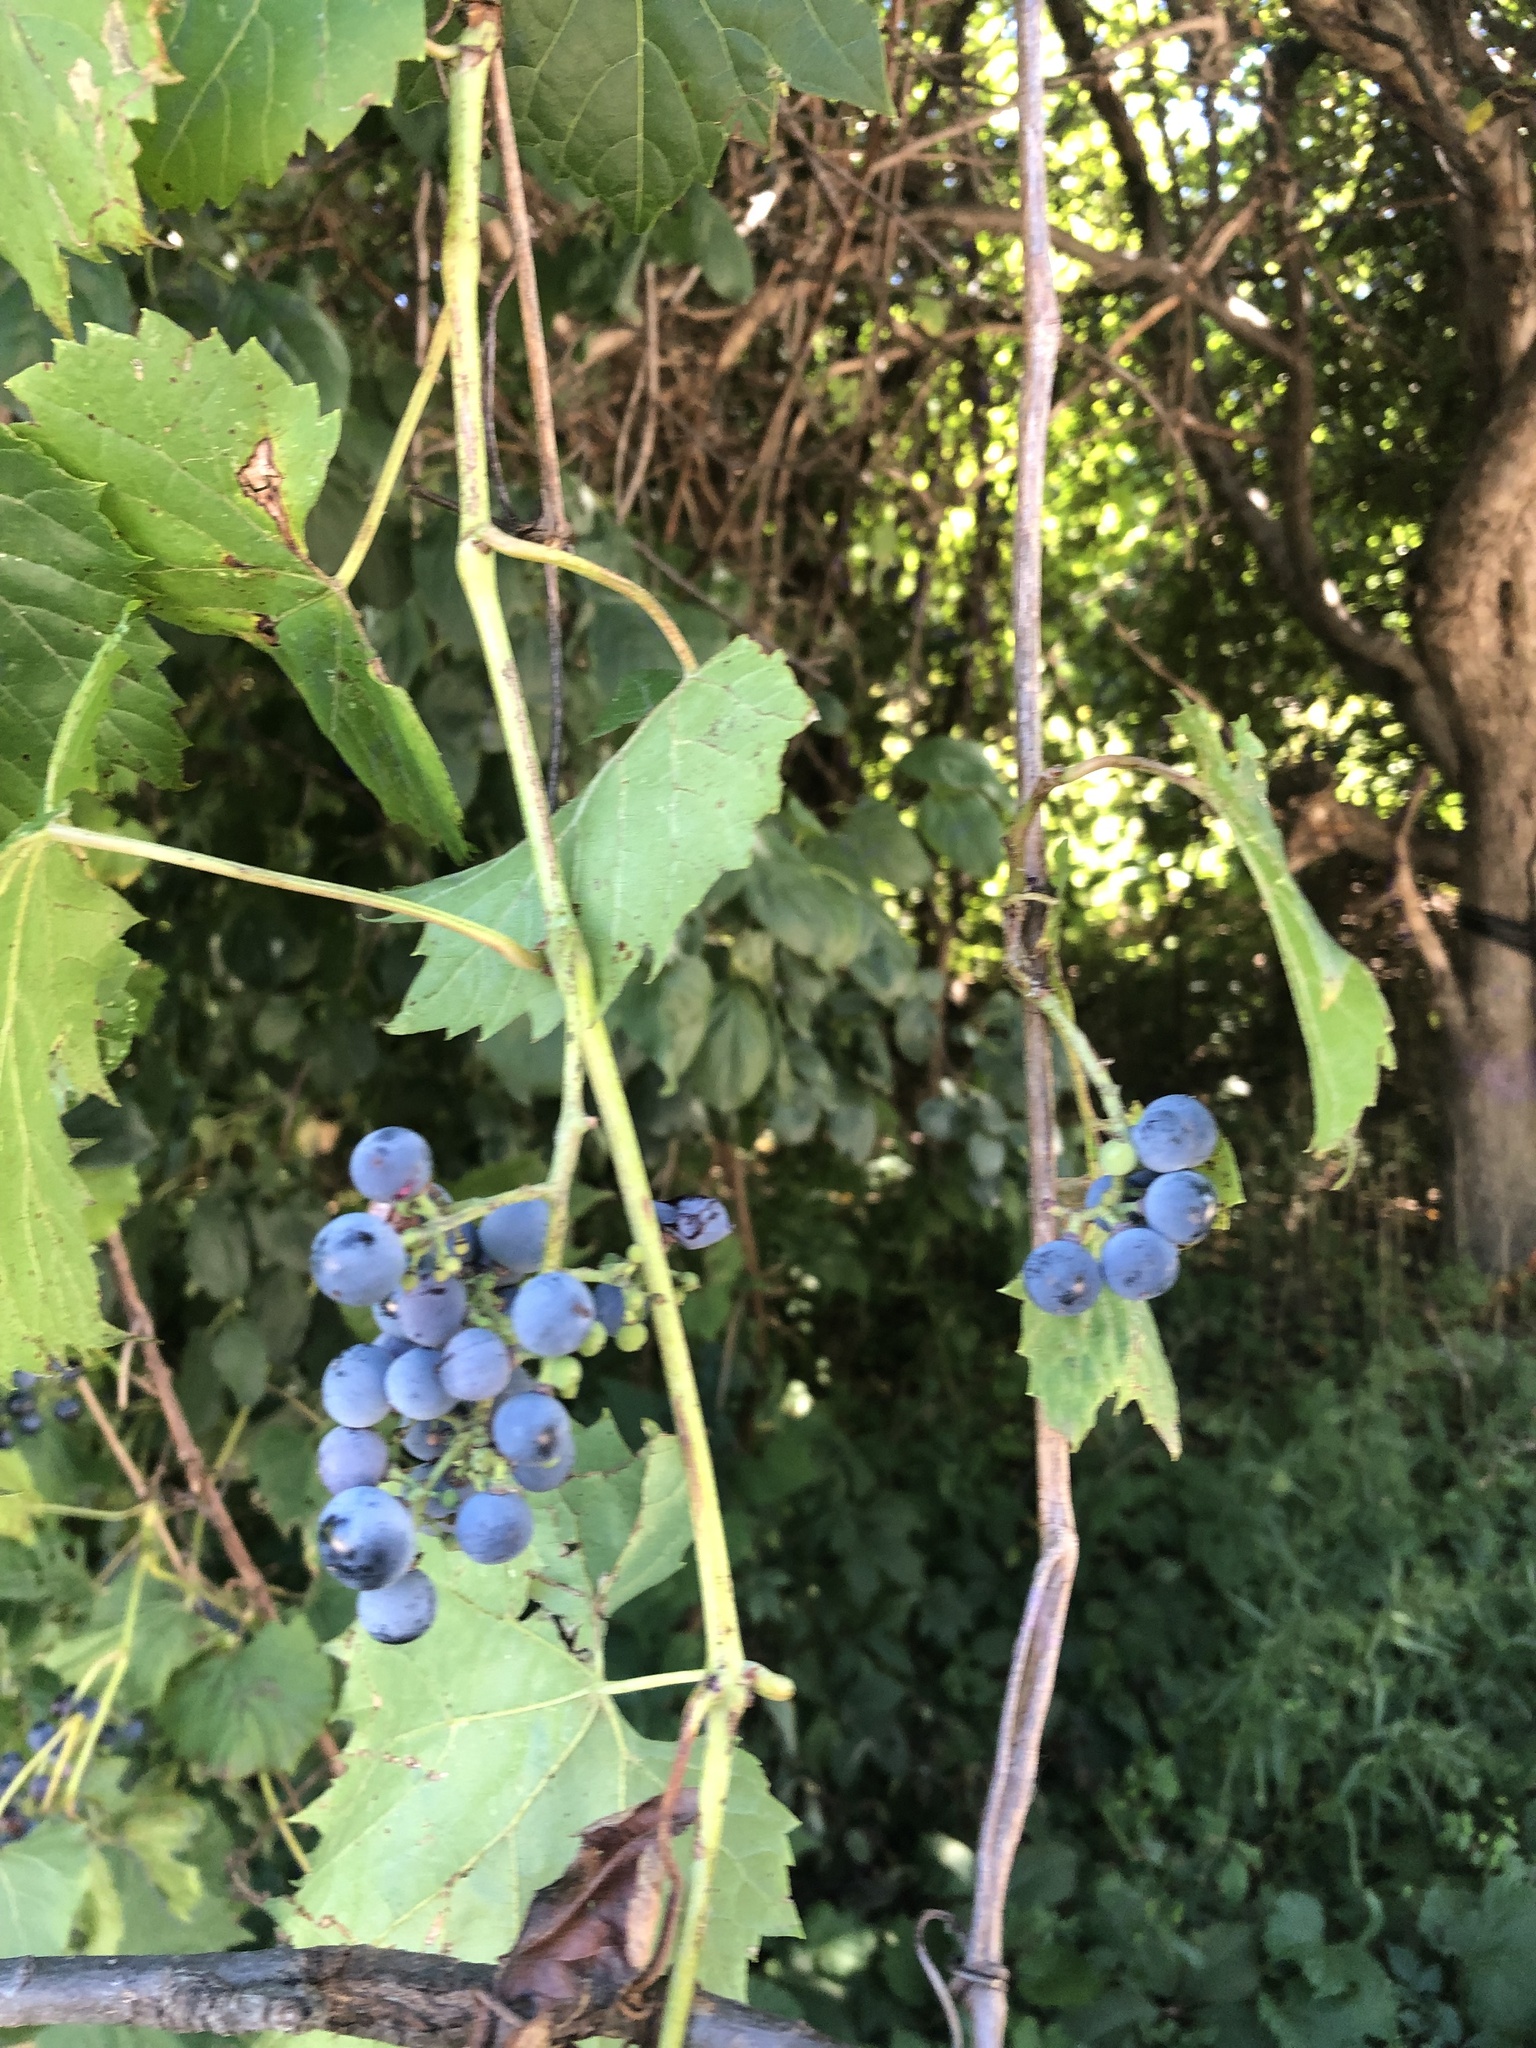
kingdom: Plantae
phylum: Tracheophyta
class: Magnoliopsida
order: Vitales
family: Vitaceae
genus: Vitis
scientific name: Vitis riparia
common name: Frost grape
